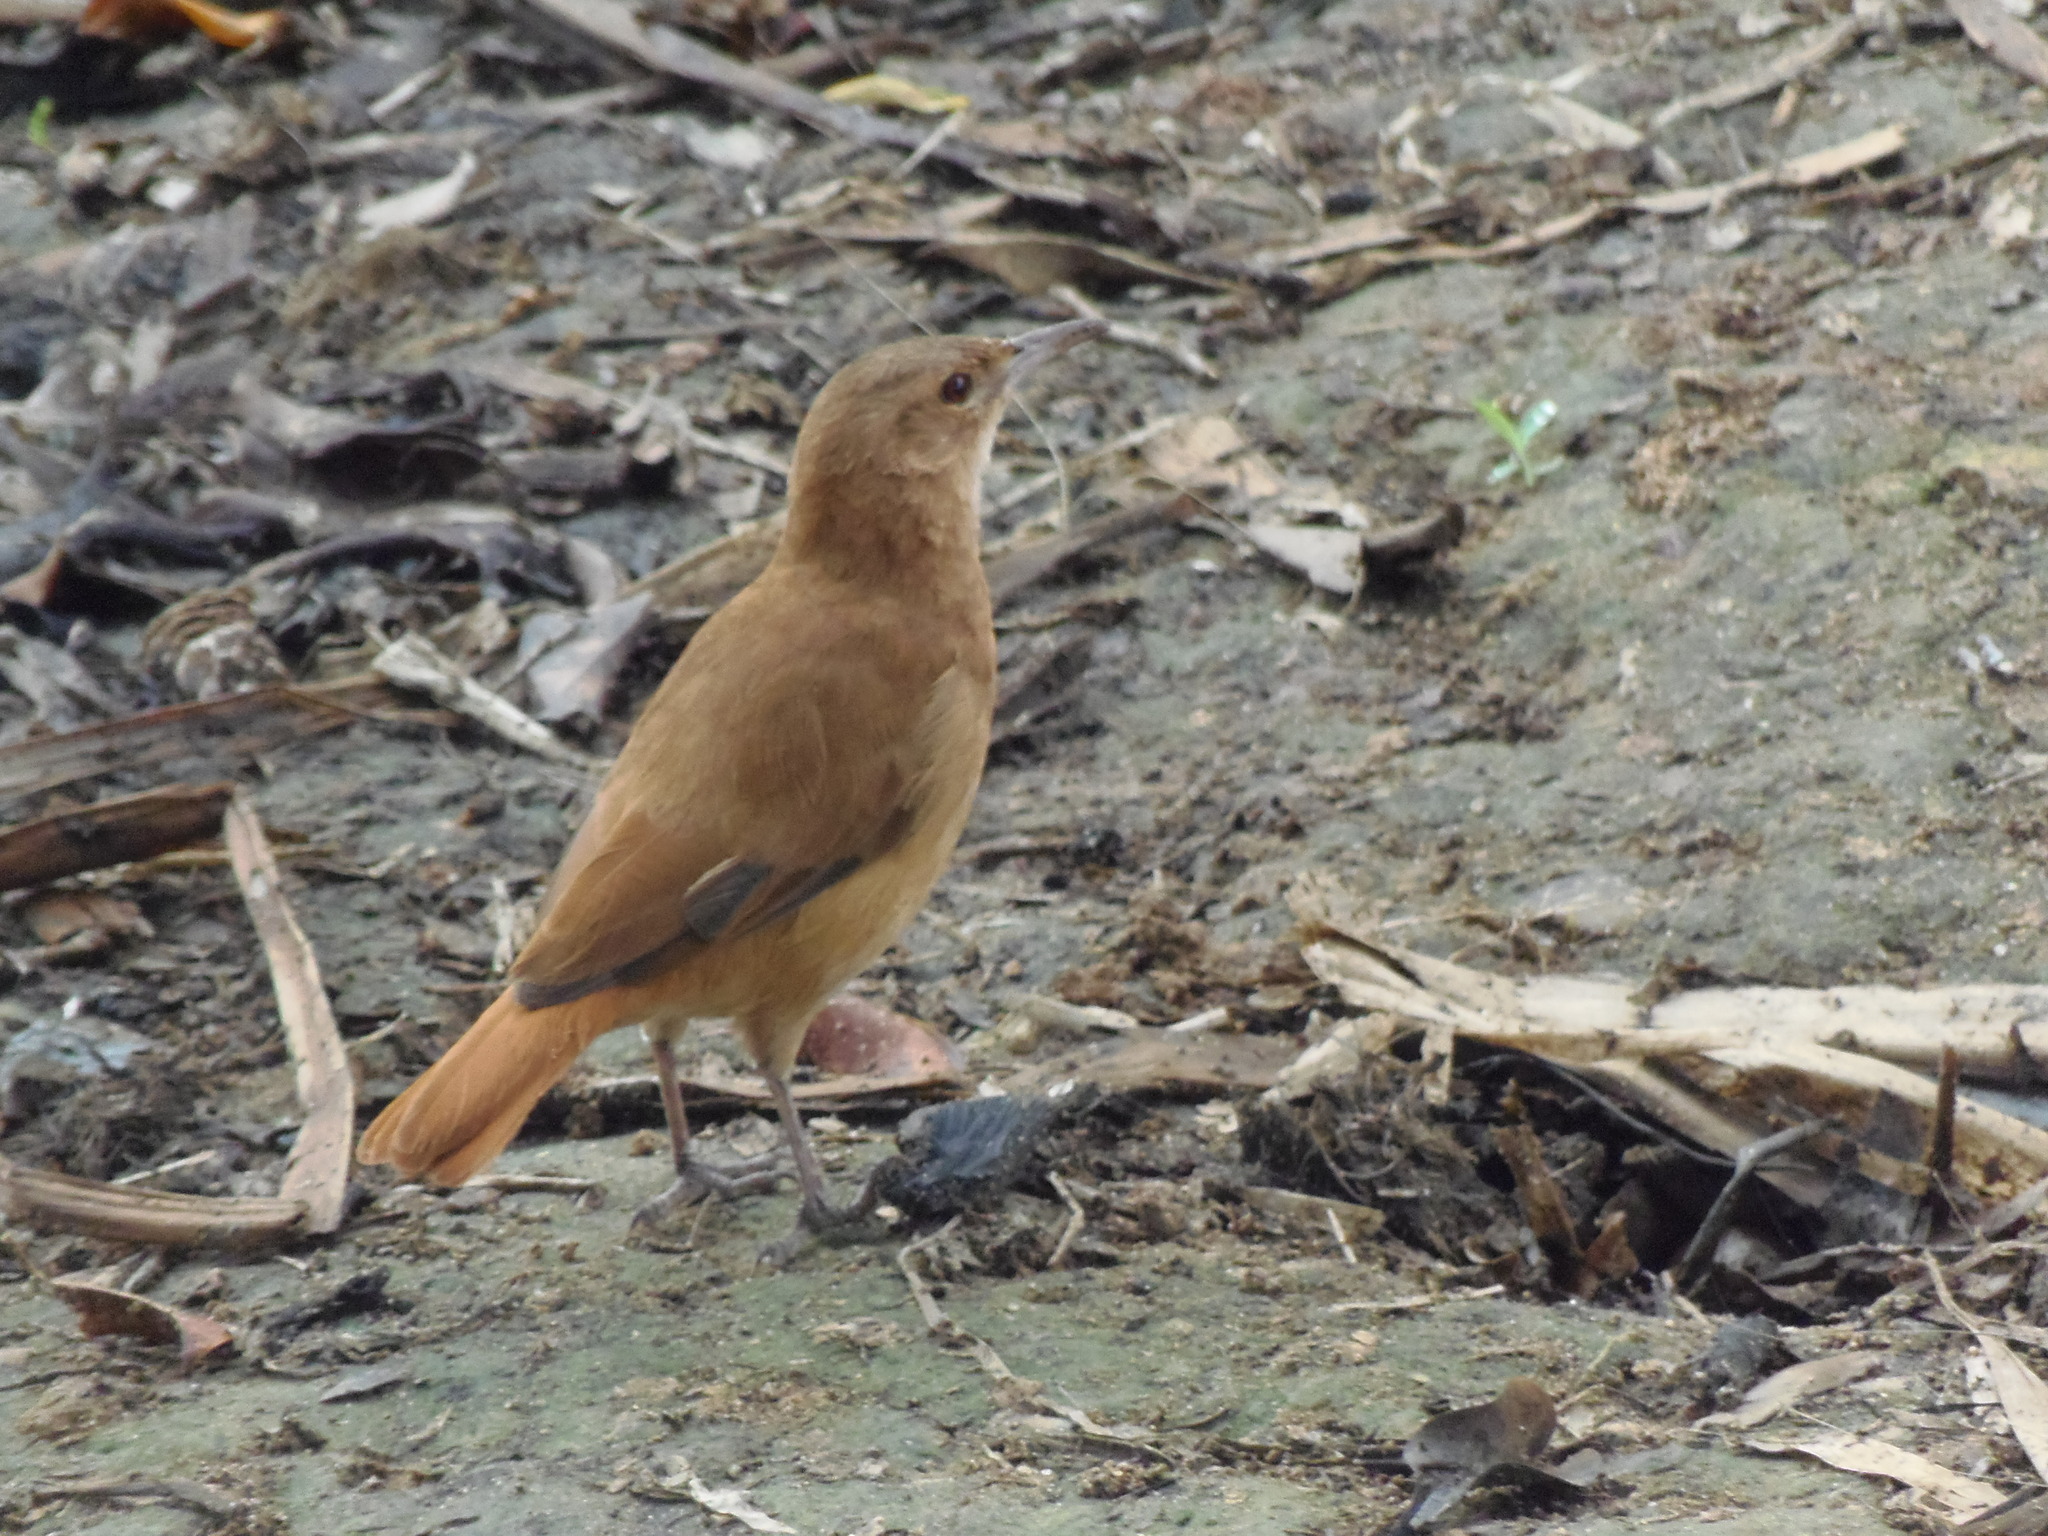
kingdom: Animalia
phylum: Chordata
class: Aves
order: Passeriformes
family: Furnariidae
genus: Furnarius
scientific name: Furnarius rufus
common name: Rufous hornero
